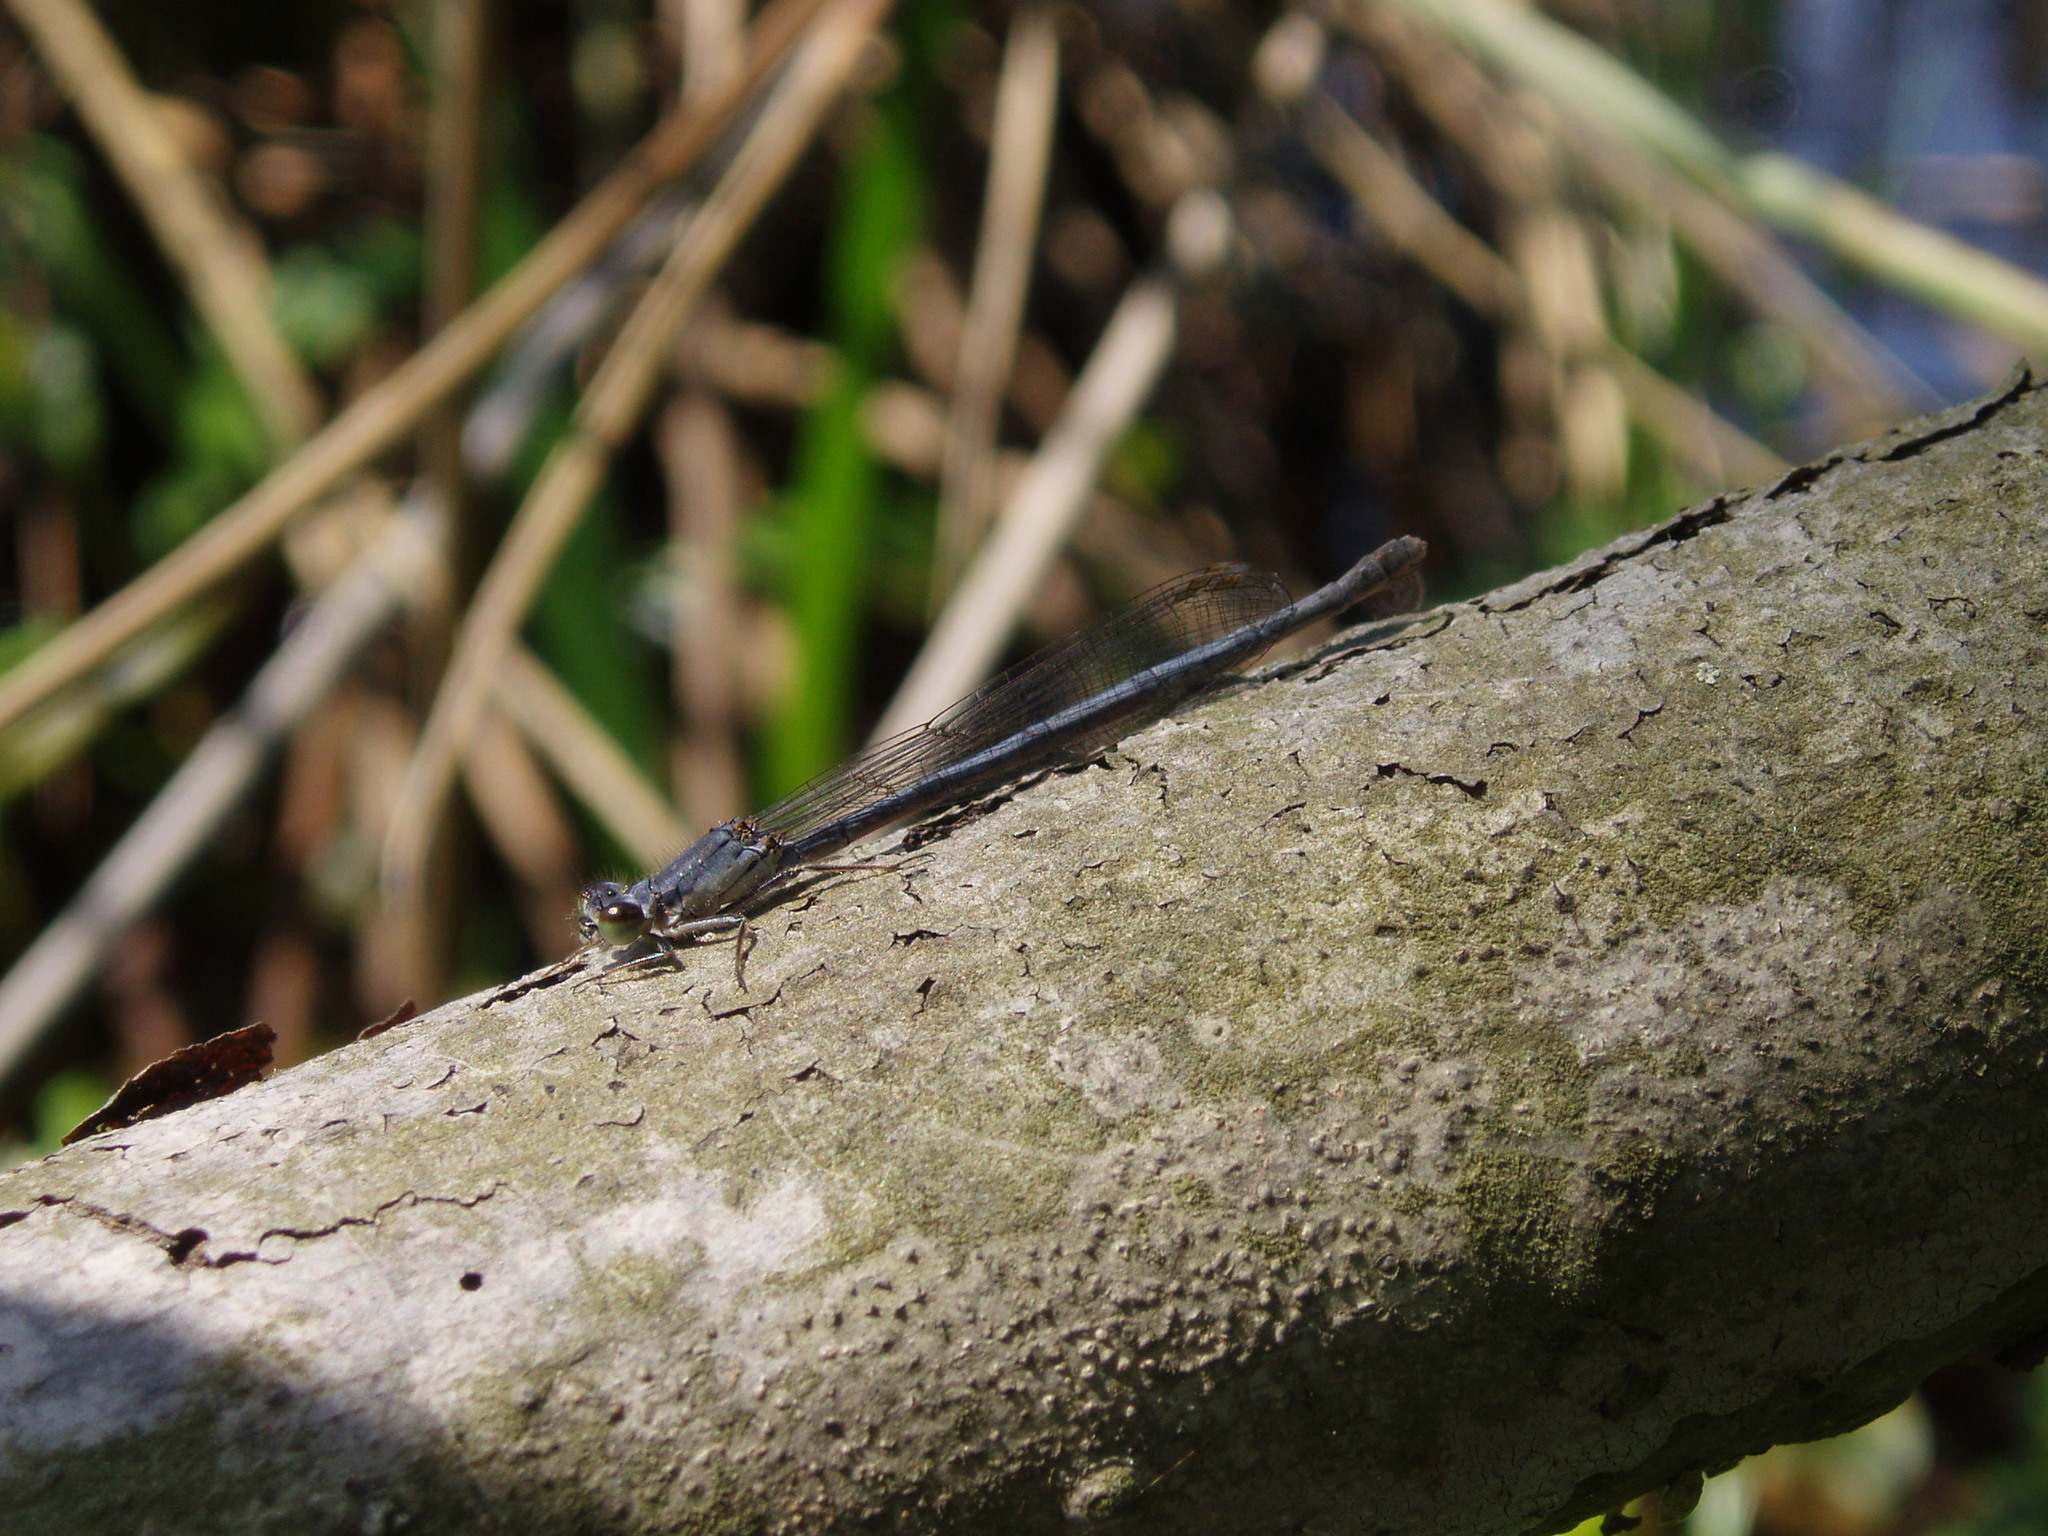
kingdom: Animalia
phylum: Arthropoda
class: Insecta
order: Odonata
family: Coenagrionidae
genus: Ischnura
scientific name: Ischnura verticalis
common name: Eastern forktail
